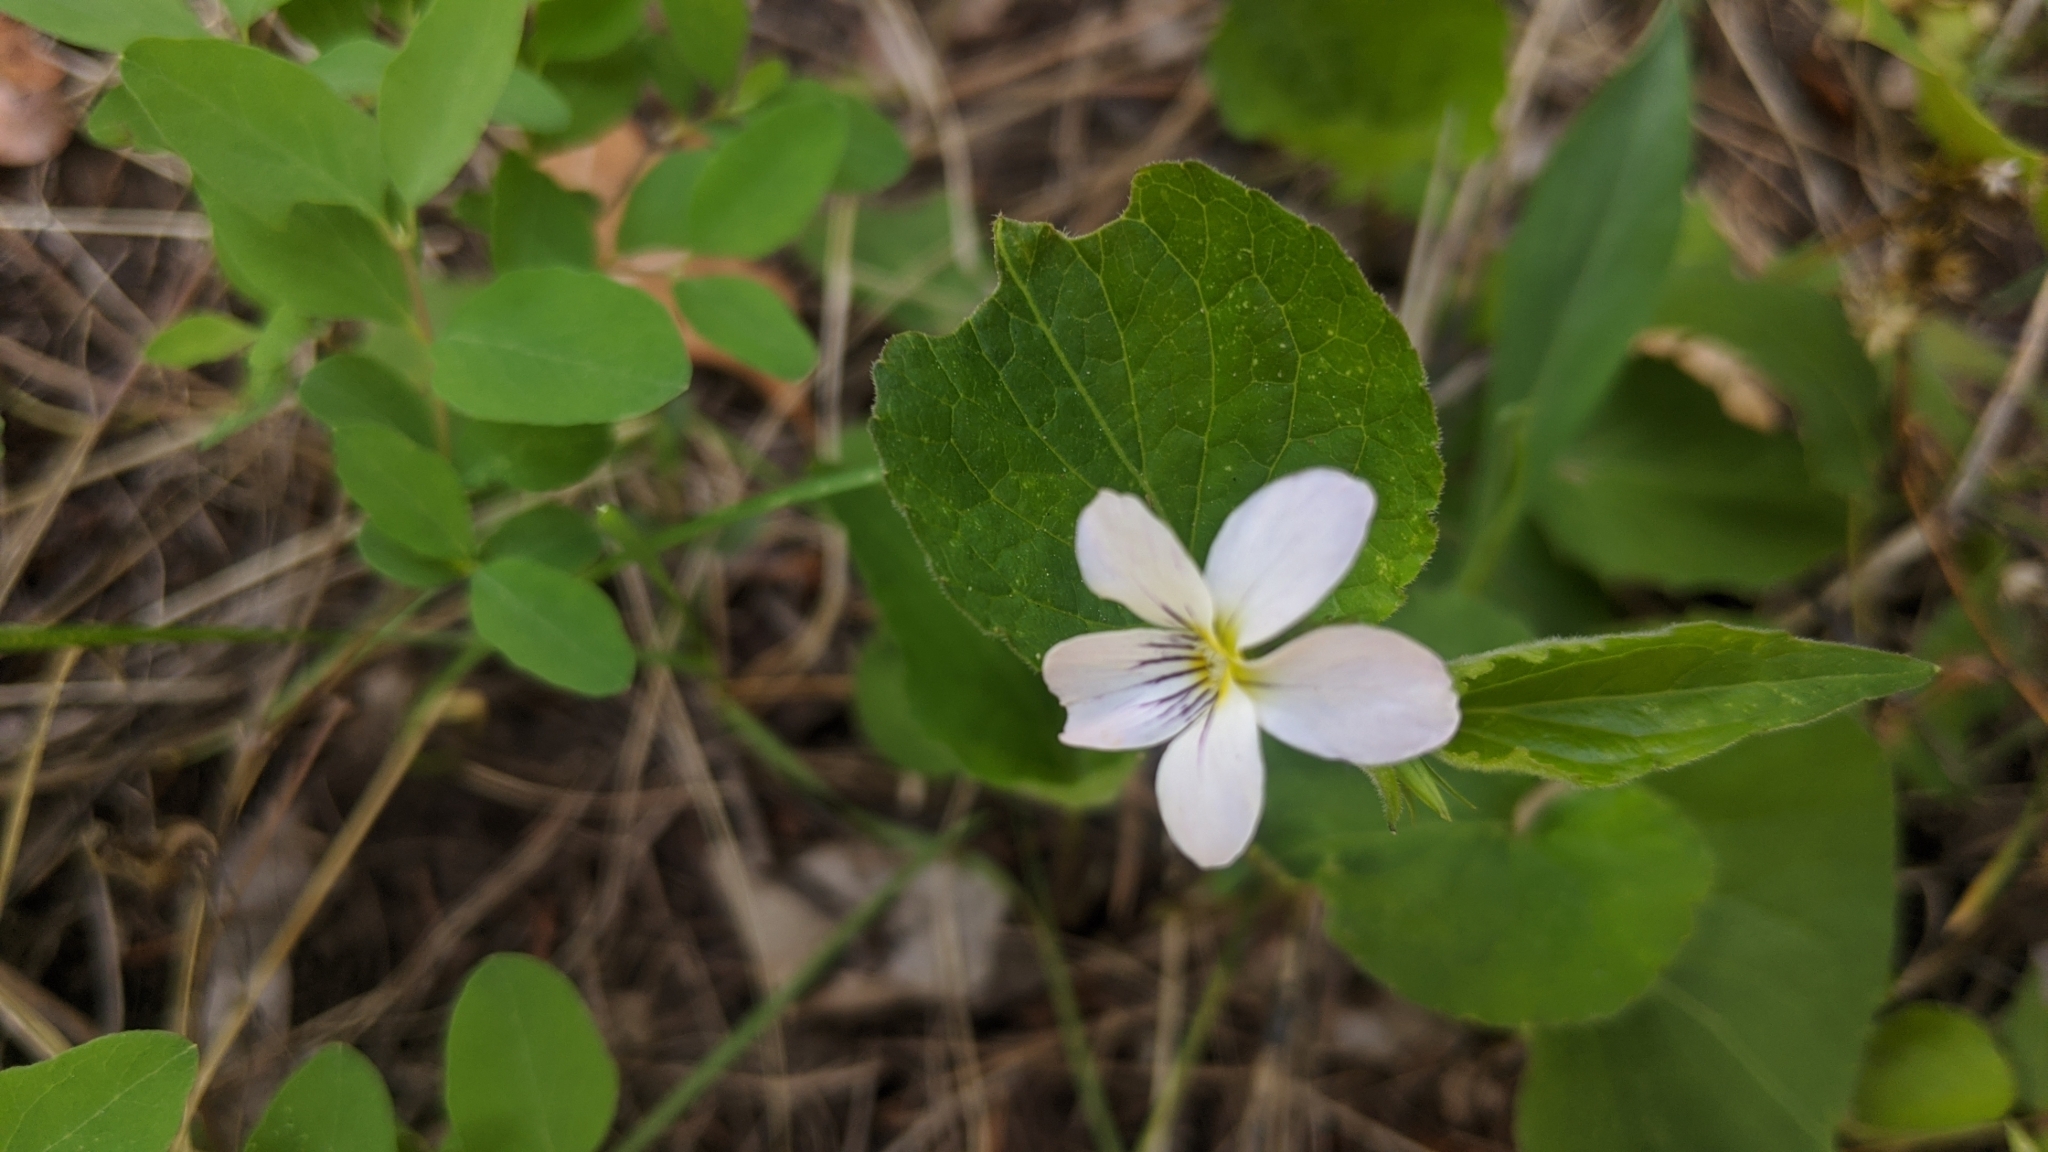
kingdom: Plantae
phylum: Tracheophyta
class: Magnoliopsida
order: Malpighiales
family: Violaceae
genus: Viola
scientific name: Viola canadensis
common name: Canada violet
